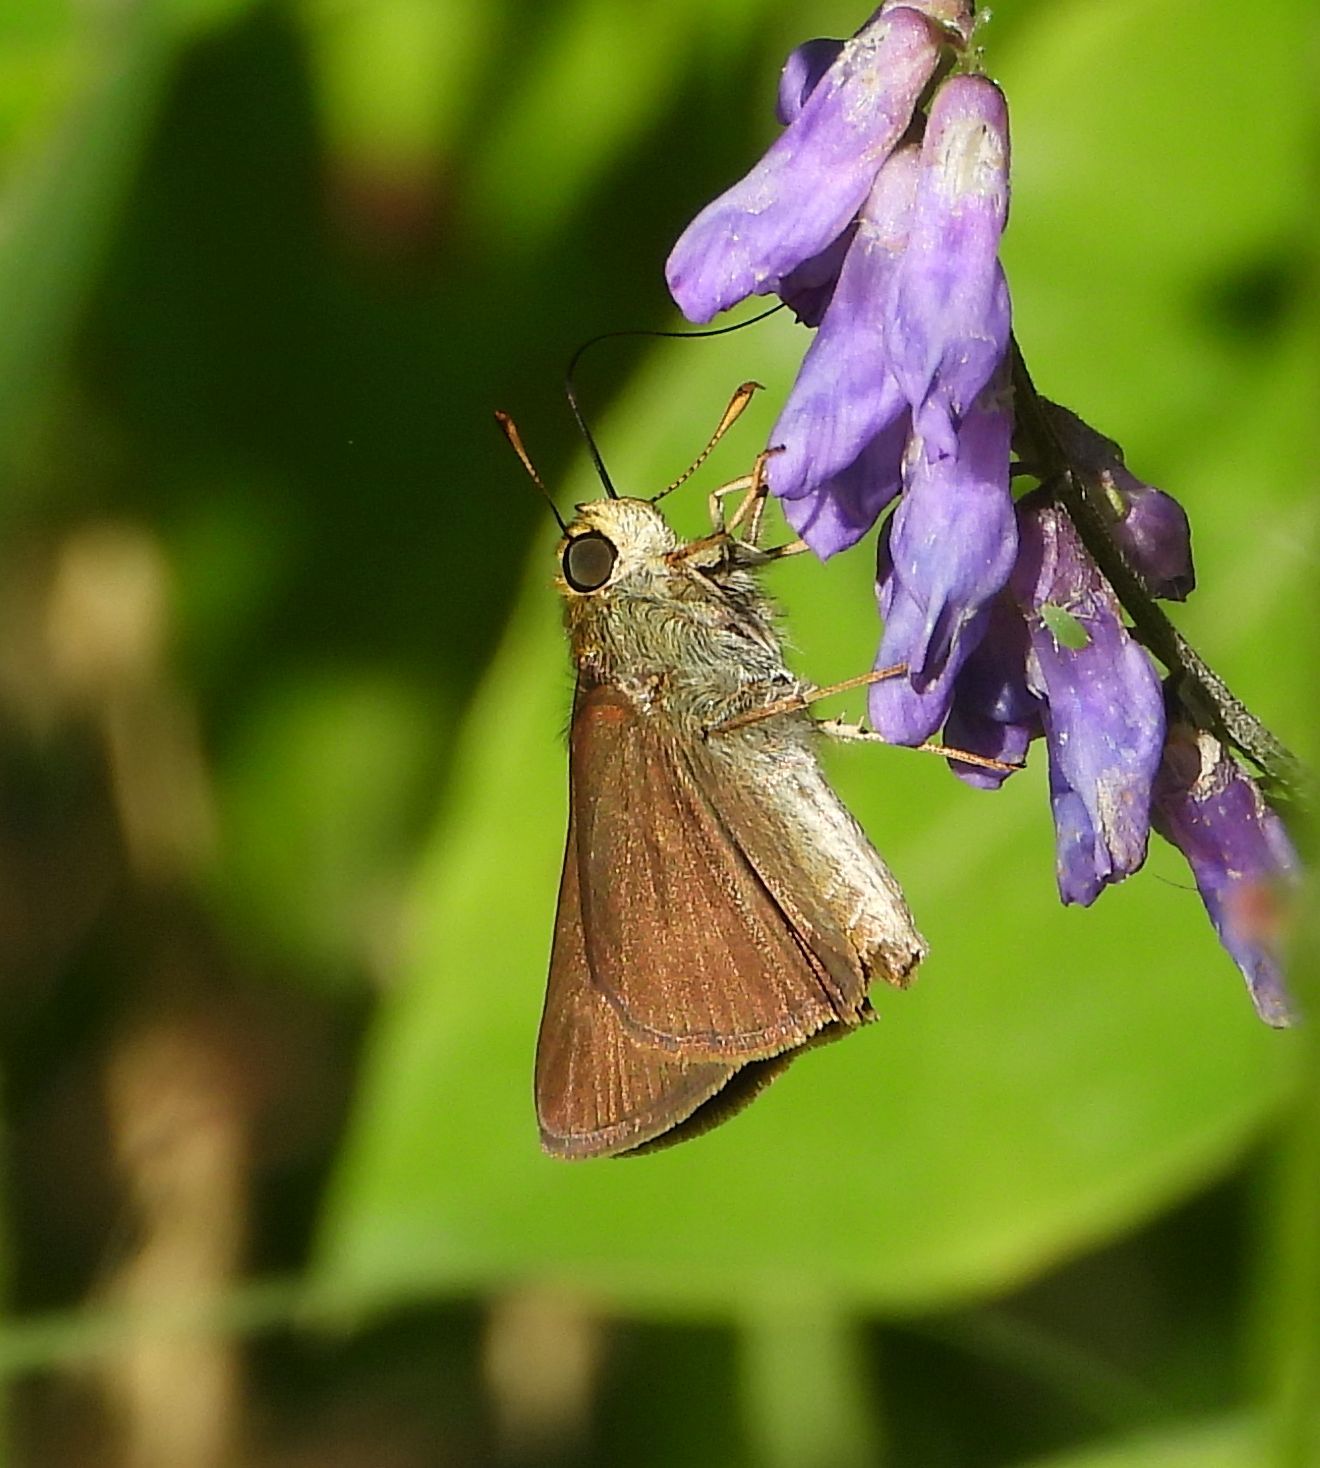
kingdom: Animalia
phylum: Arthropoda
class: Insecta
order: Lepidoptera
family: Hesperiidae
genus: Euphyes
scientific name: Euphyes vestris
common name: Dun skipper
